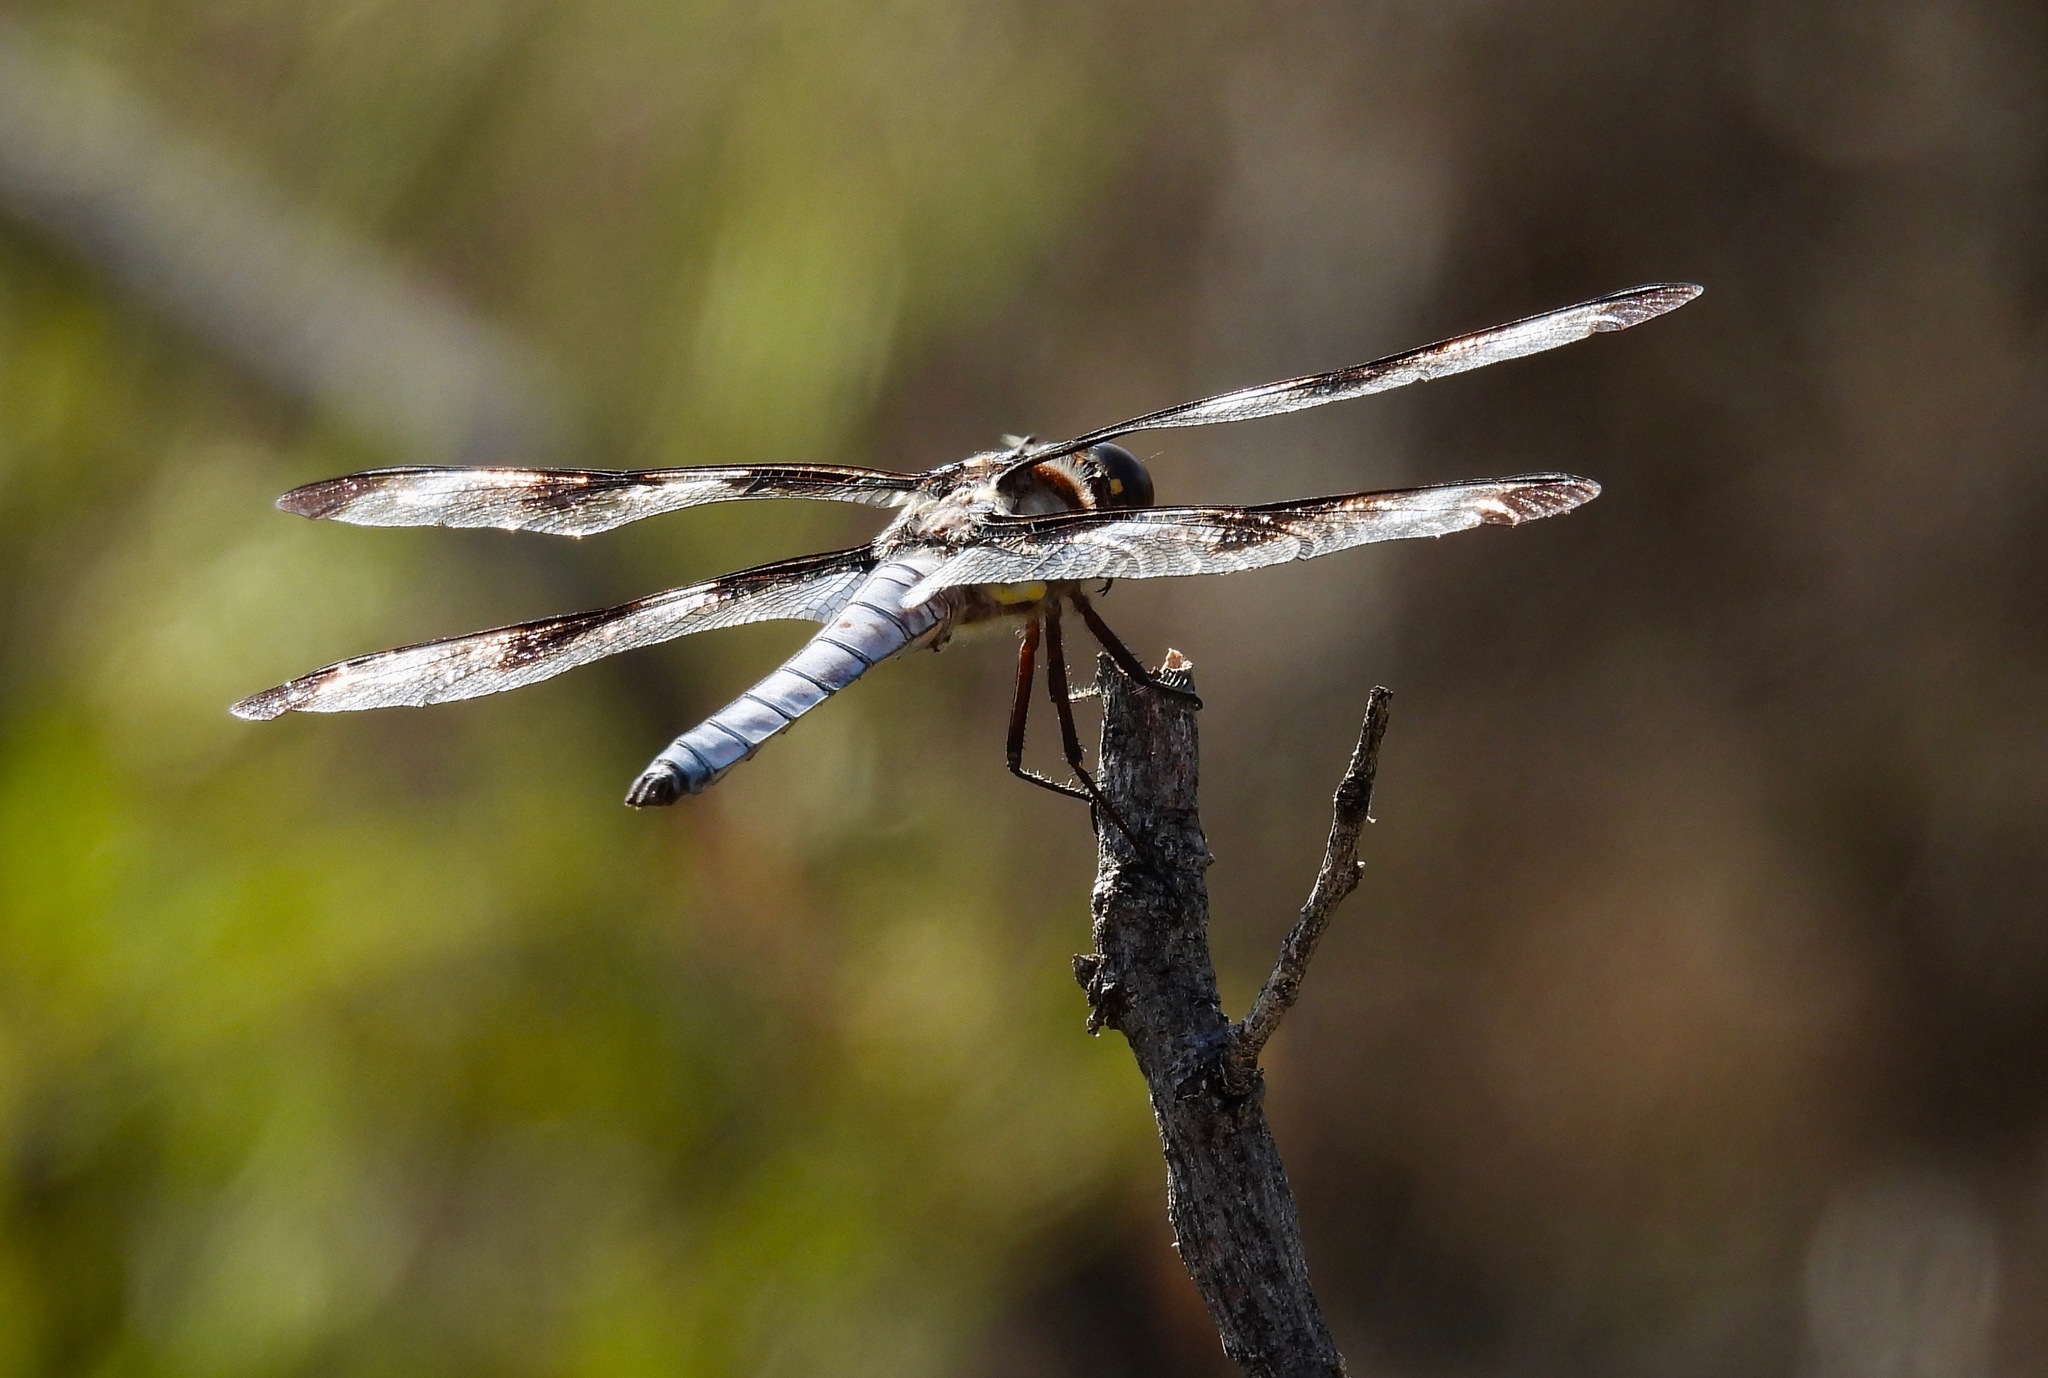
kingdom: Animalia
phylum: Arthropoda
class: Insecta
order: Odonata
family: Libellulidae
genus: Libellula
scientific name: Libellula pulchella
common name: Twelve-spotted skimmer
